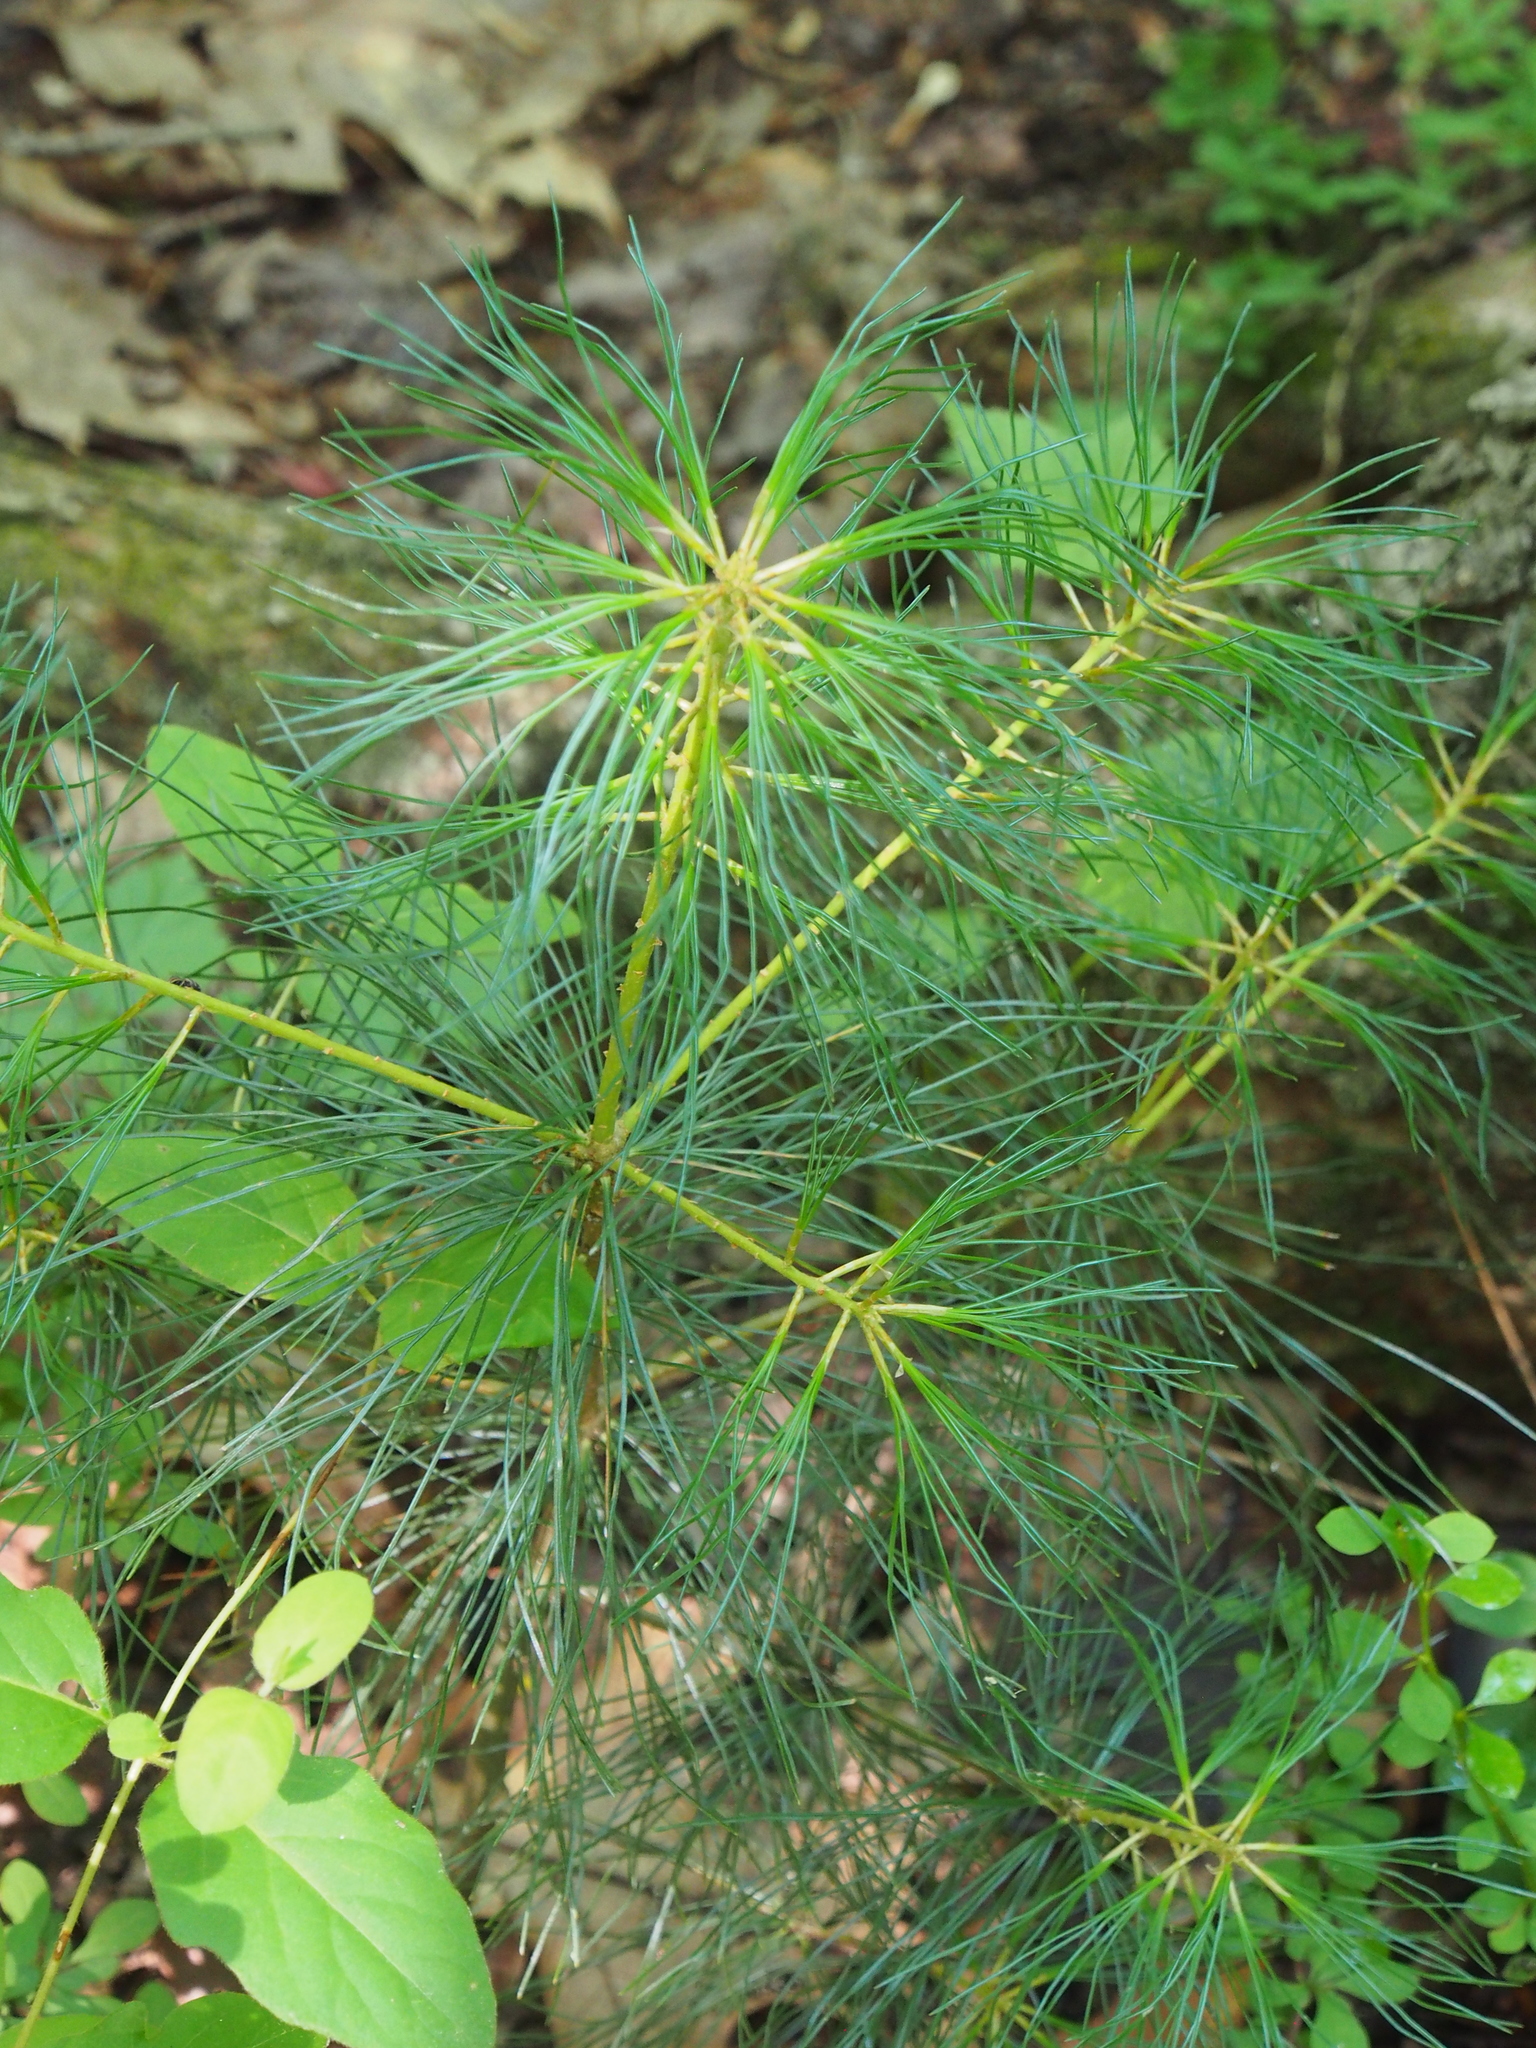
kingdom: Plantae
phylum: Tracheophyta
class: Pinopsida
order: Pinales
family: Pinaceae
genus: Pinus
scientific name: Pinus strobus
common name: Weymouth pine
